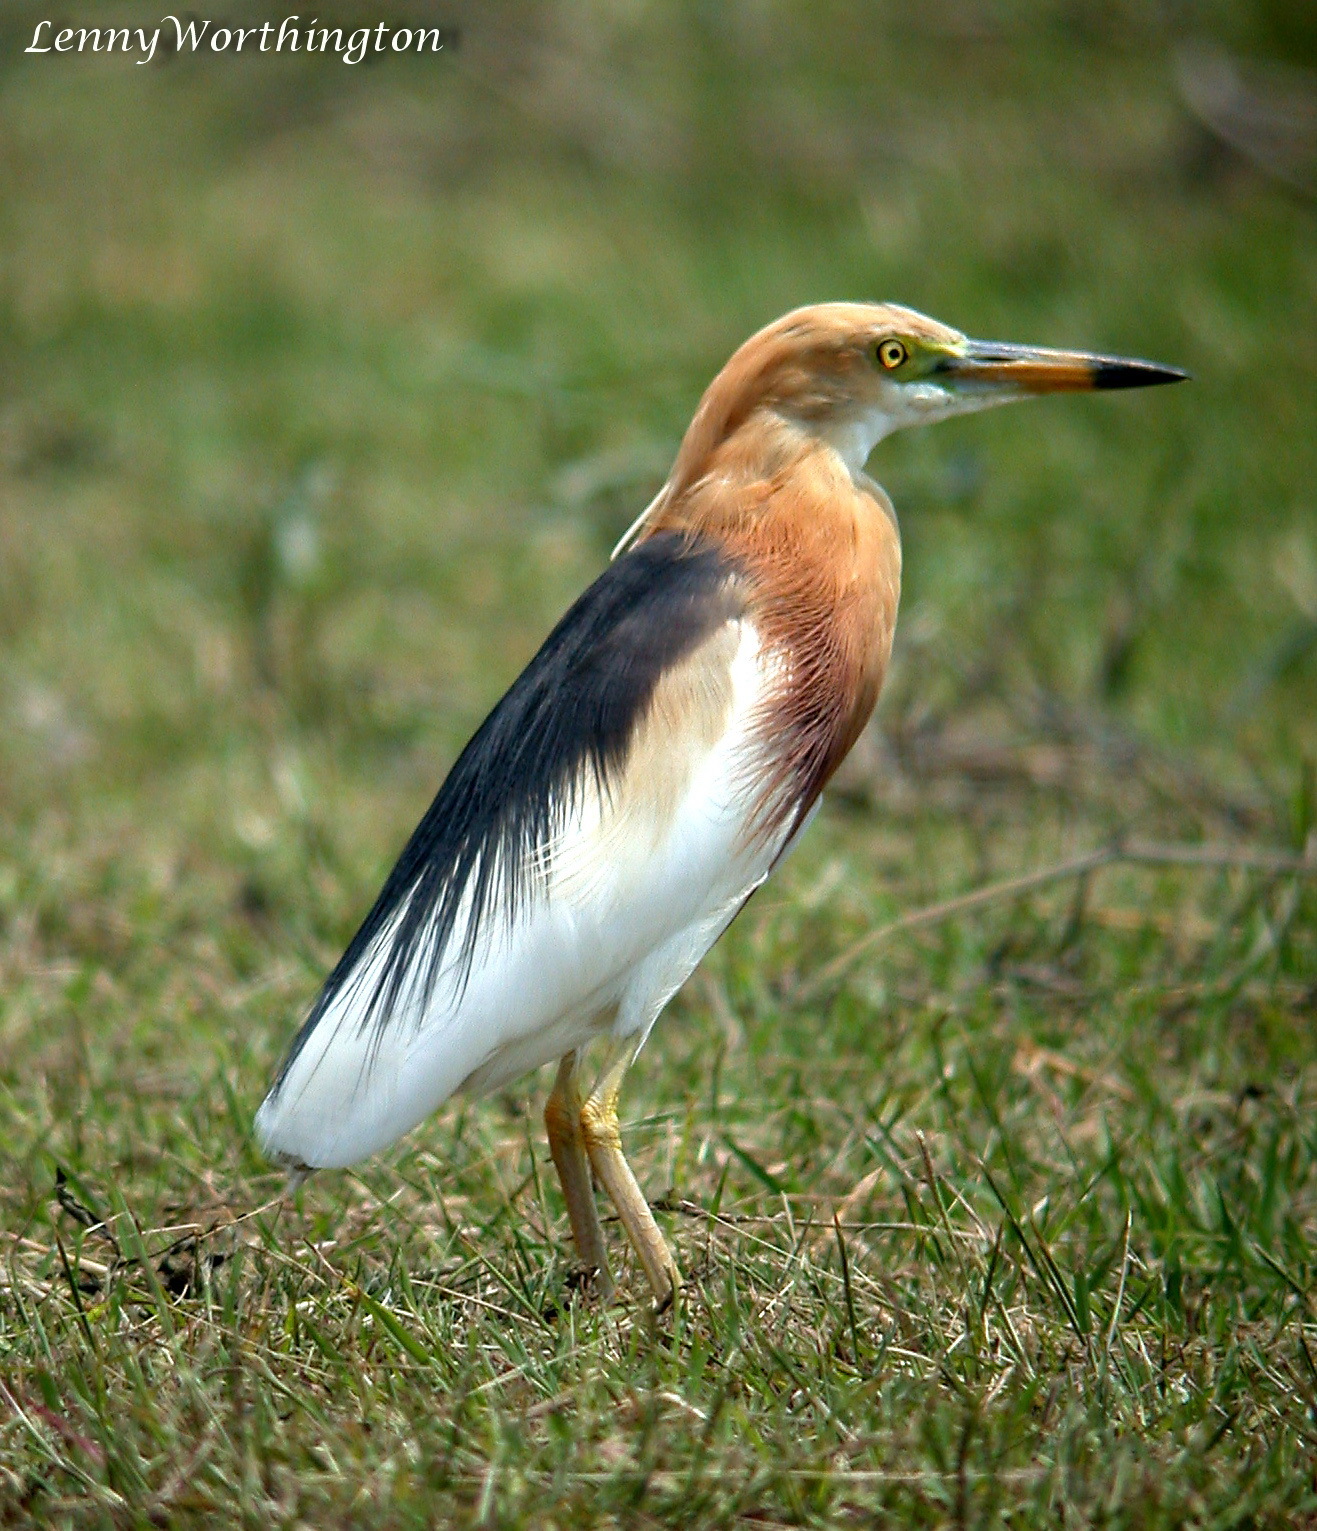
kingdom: Animalia
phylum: Chordata
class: Aves
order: Pelecaniformes
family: Ardeidae
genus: Ardeola
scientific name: Ardeola speciosa
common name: Javan pond heron
